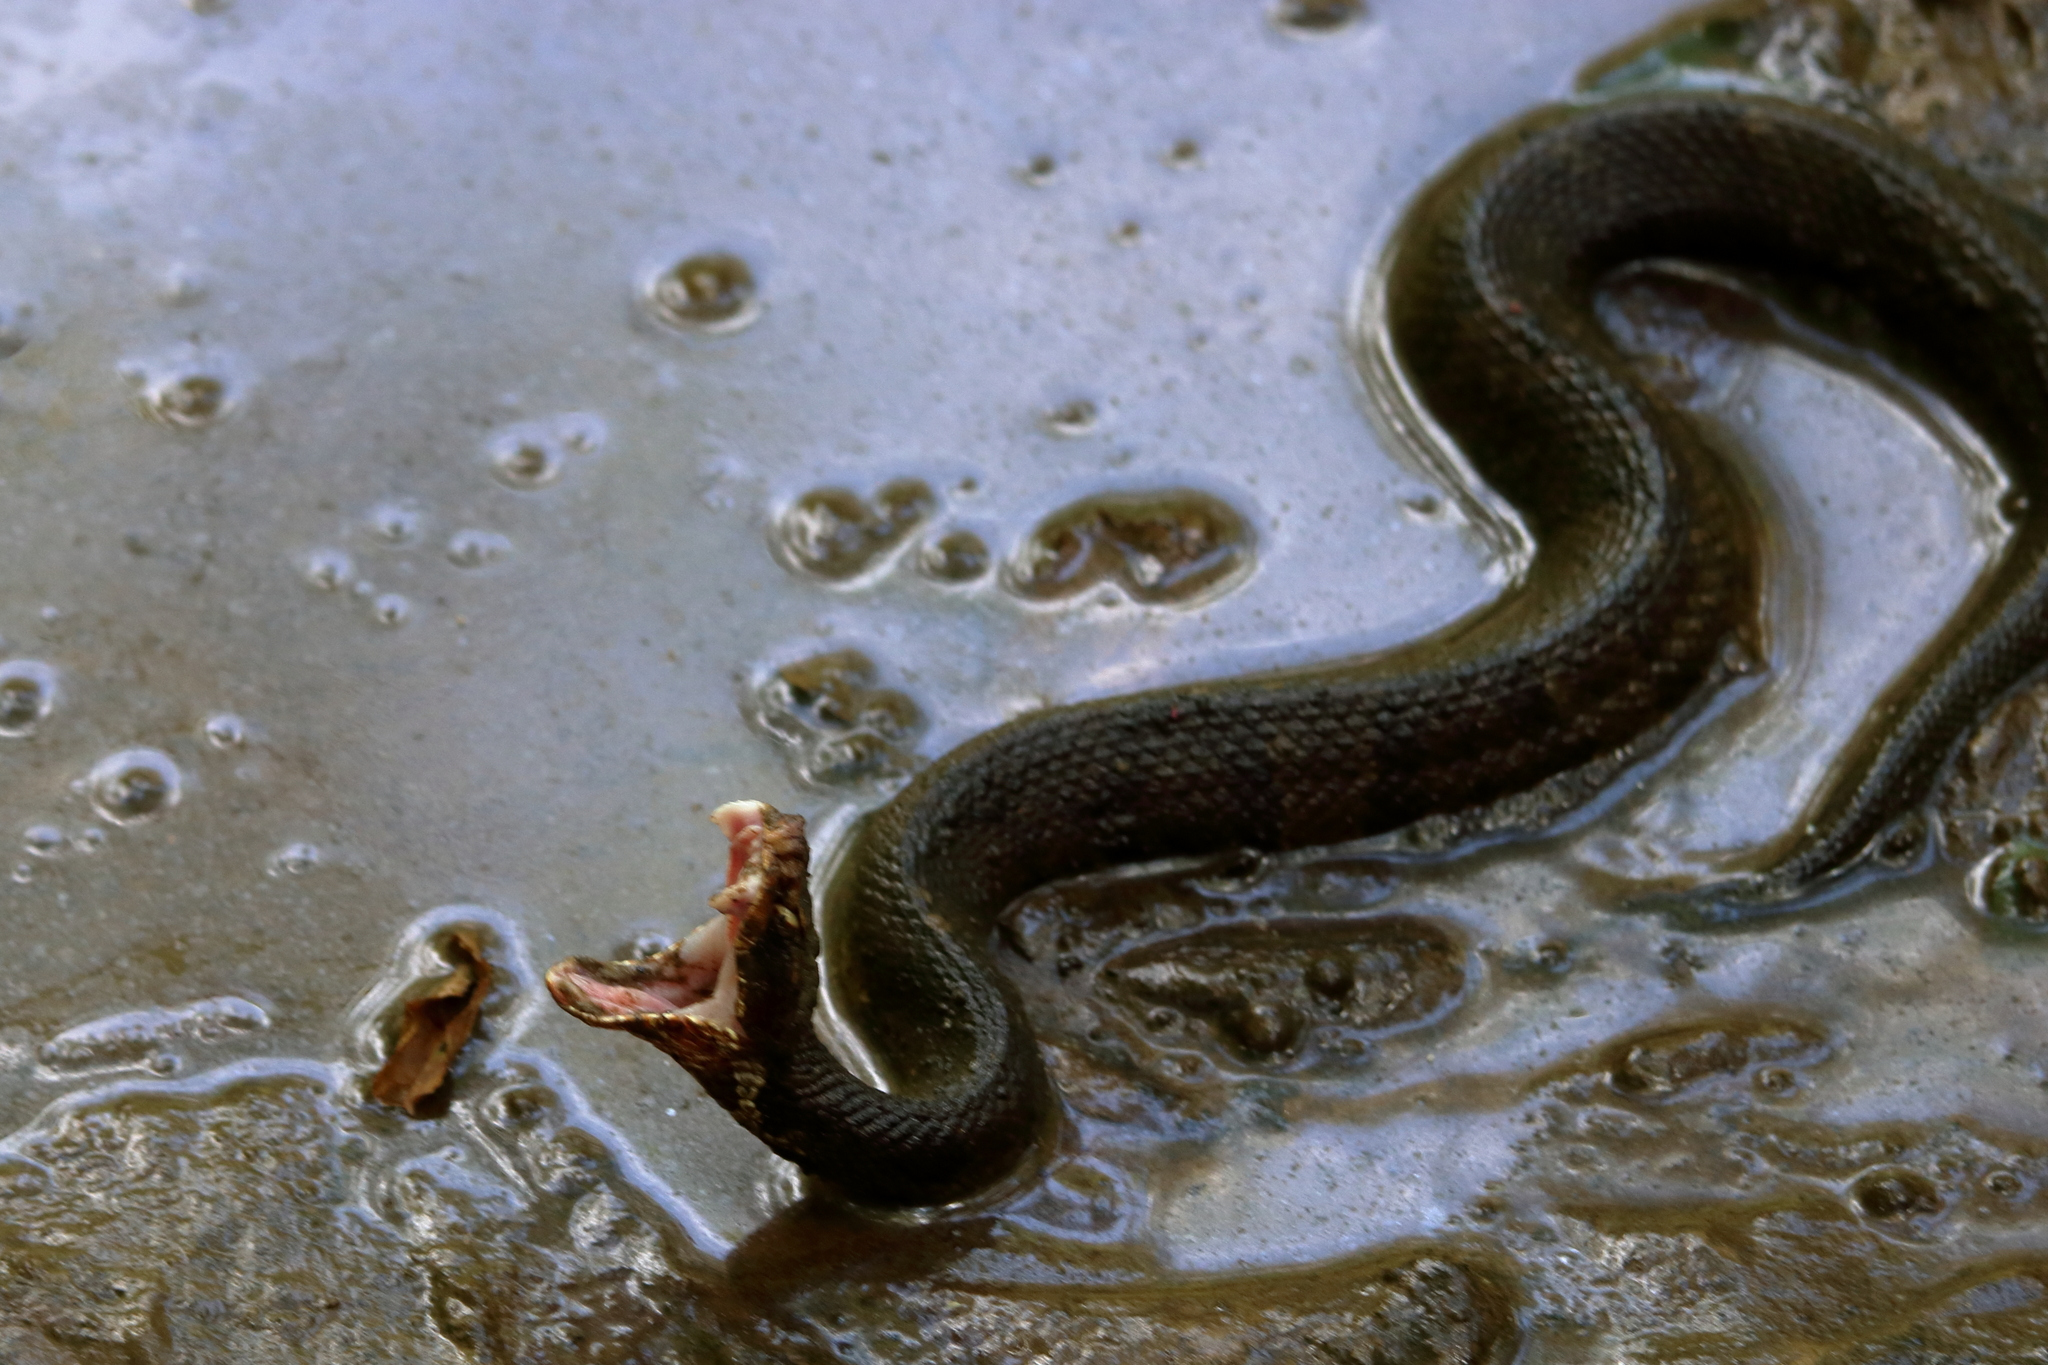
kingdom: Animalia
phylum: Chordata
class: Squamata
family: Viperidae
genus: Agkistrodon
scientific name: Agkistrodon piscivorus
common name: Cottonmouth
